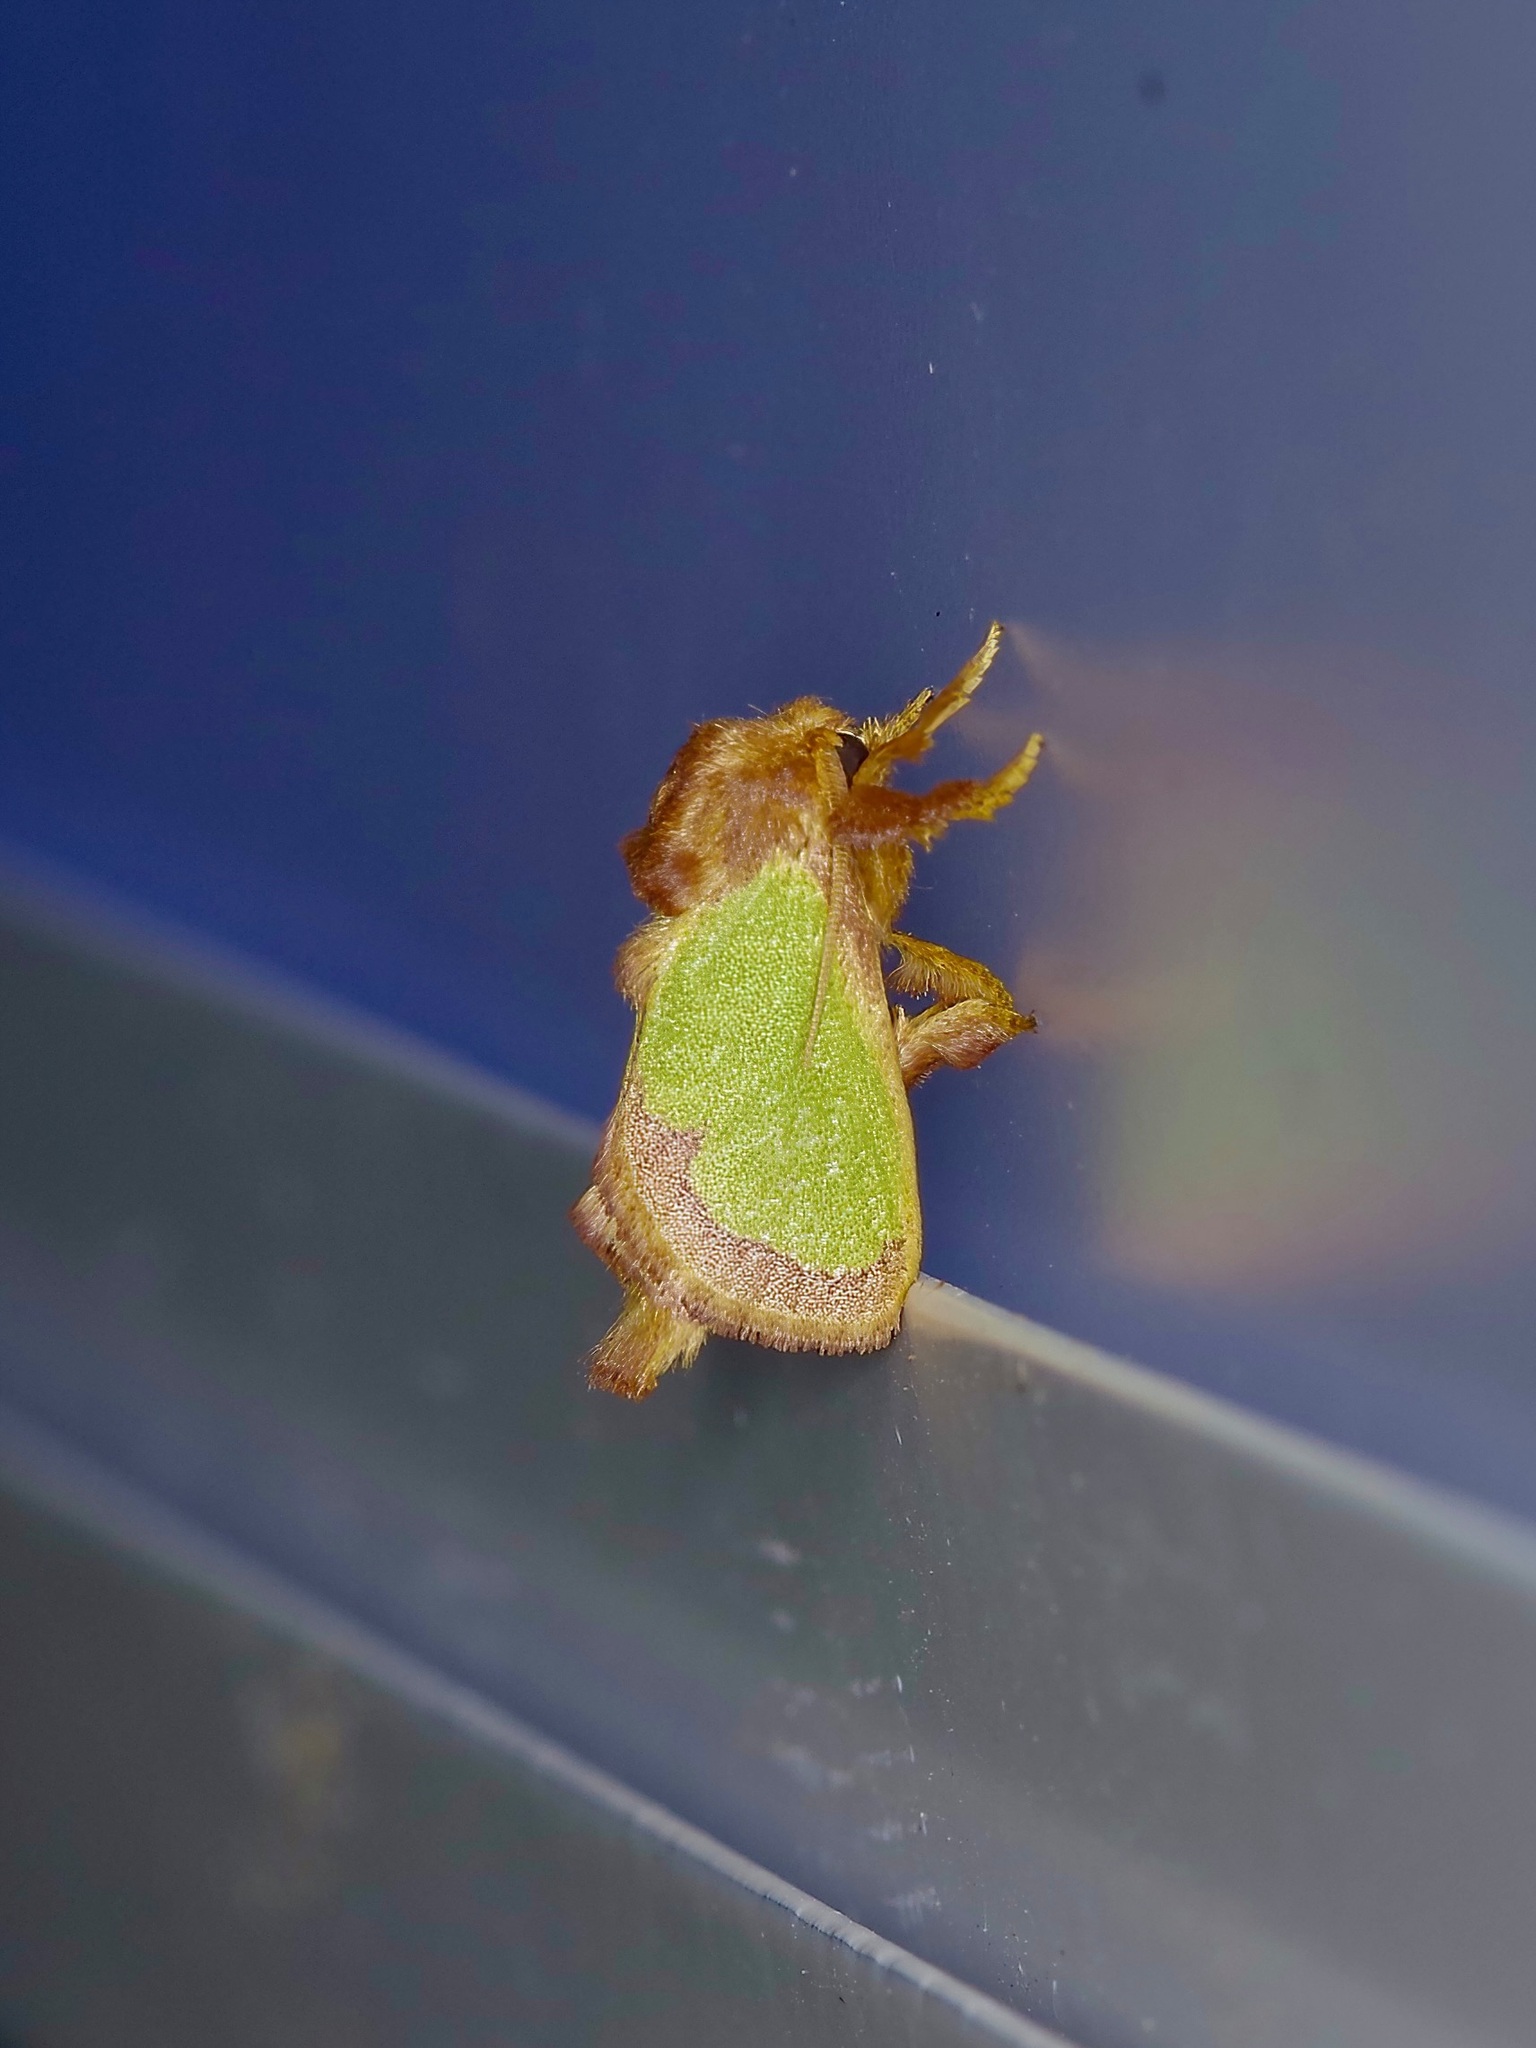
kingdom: Animalia
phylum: Arthropoda
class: Insecta
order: Lepidoptera
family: Limacodidae
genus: Euclea
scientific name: Euclea incisa
